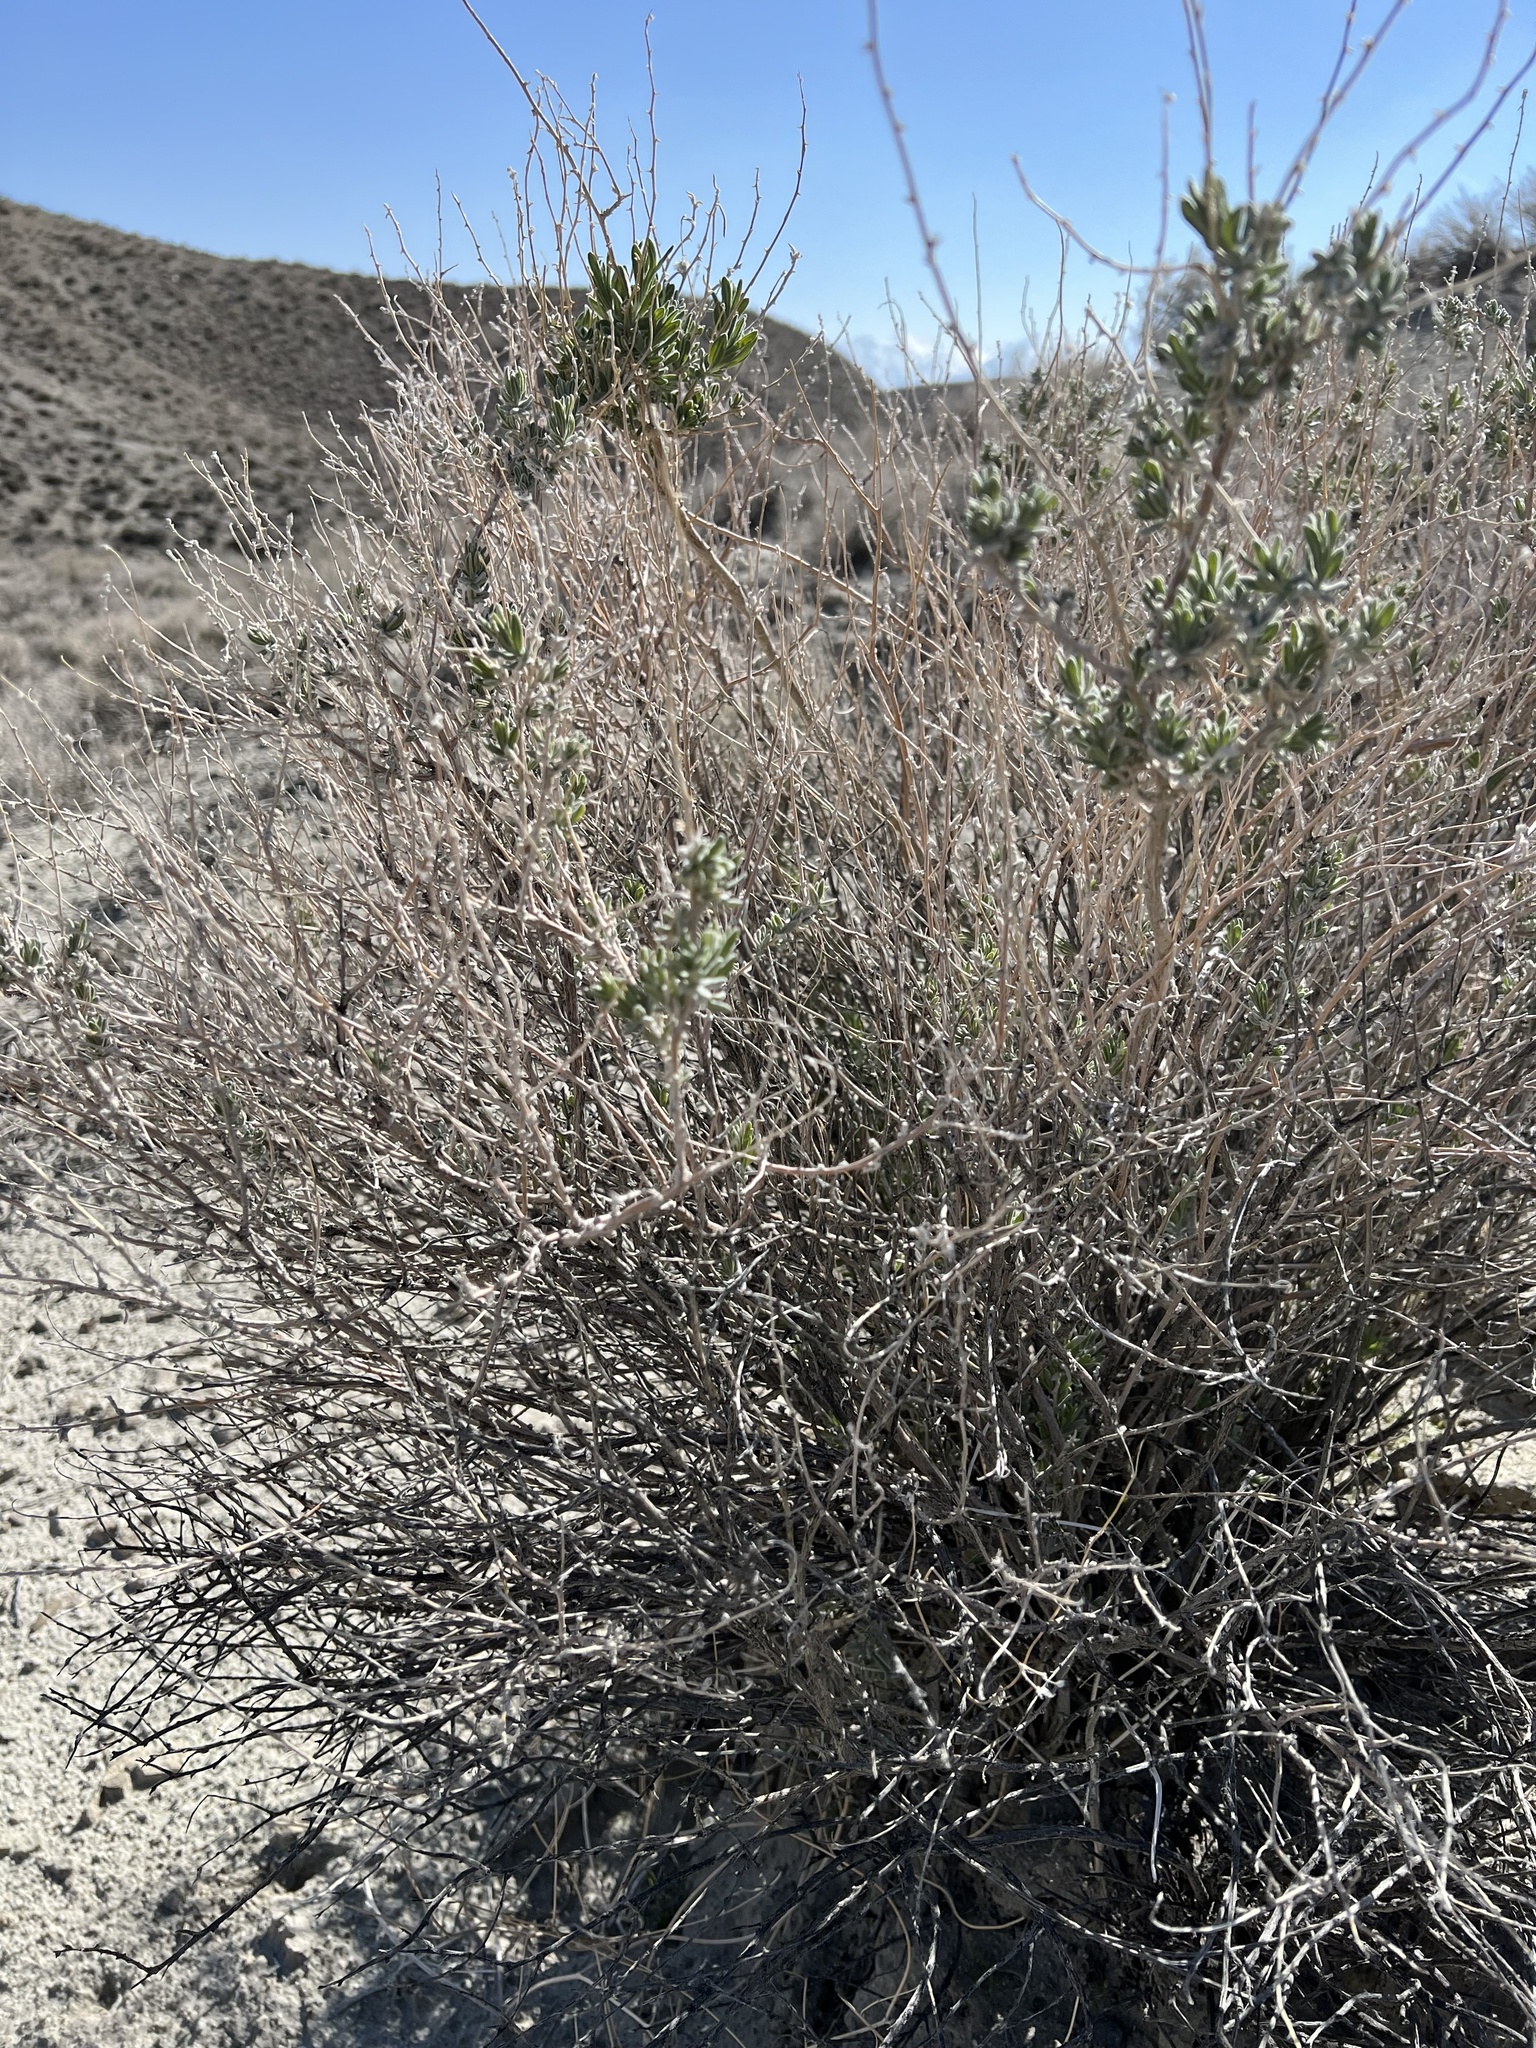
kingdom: Plantae
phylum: Tracheophyta
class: Magnoliopsida
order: Caryophyllales
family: Amaranthaceae
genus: Krascheninnikovia
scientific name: Krascheninnikovia lanata
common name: Winterfat
